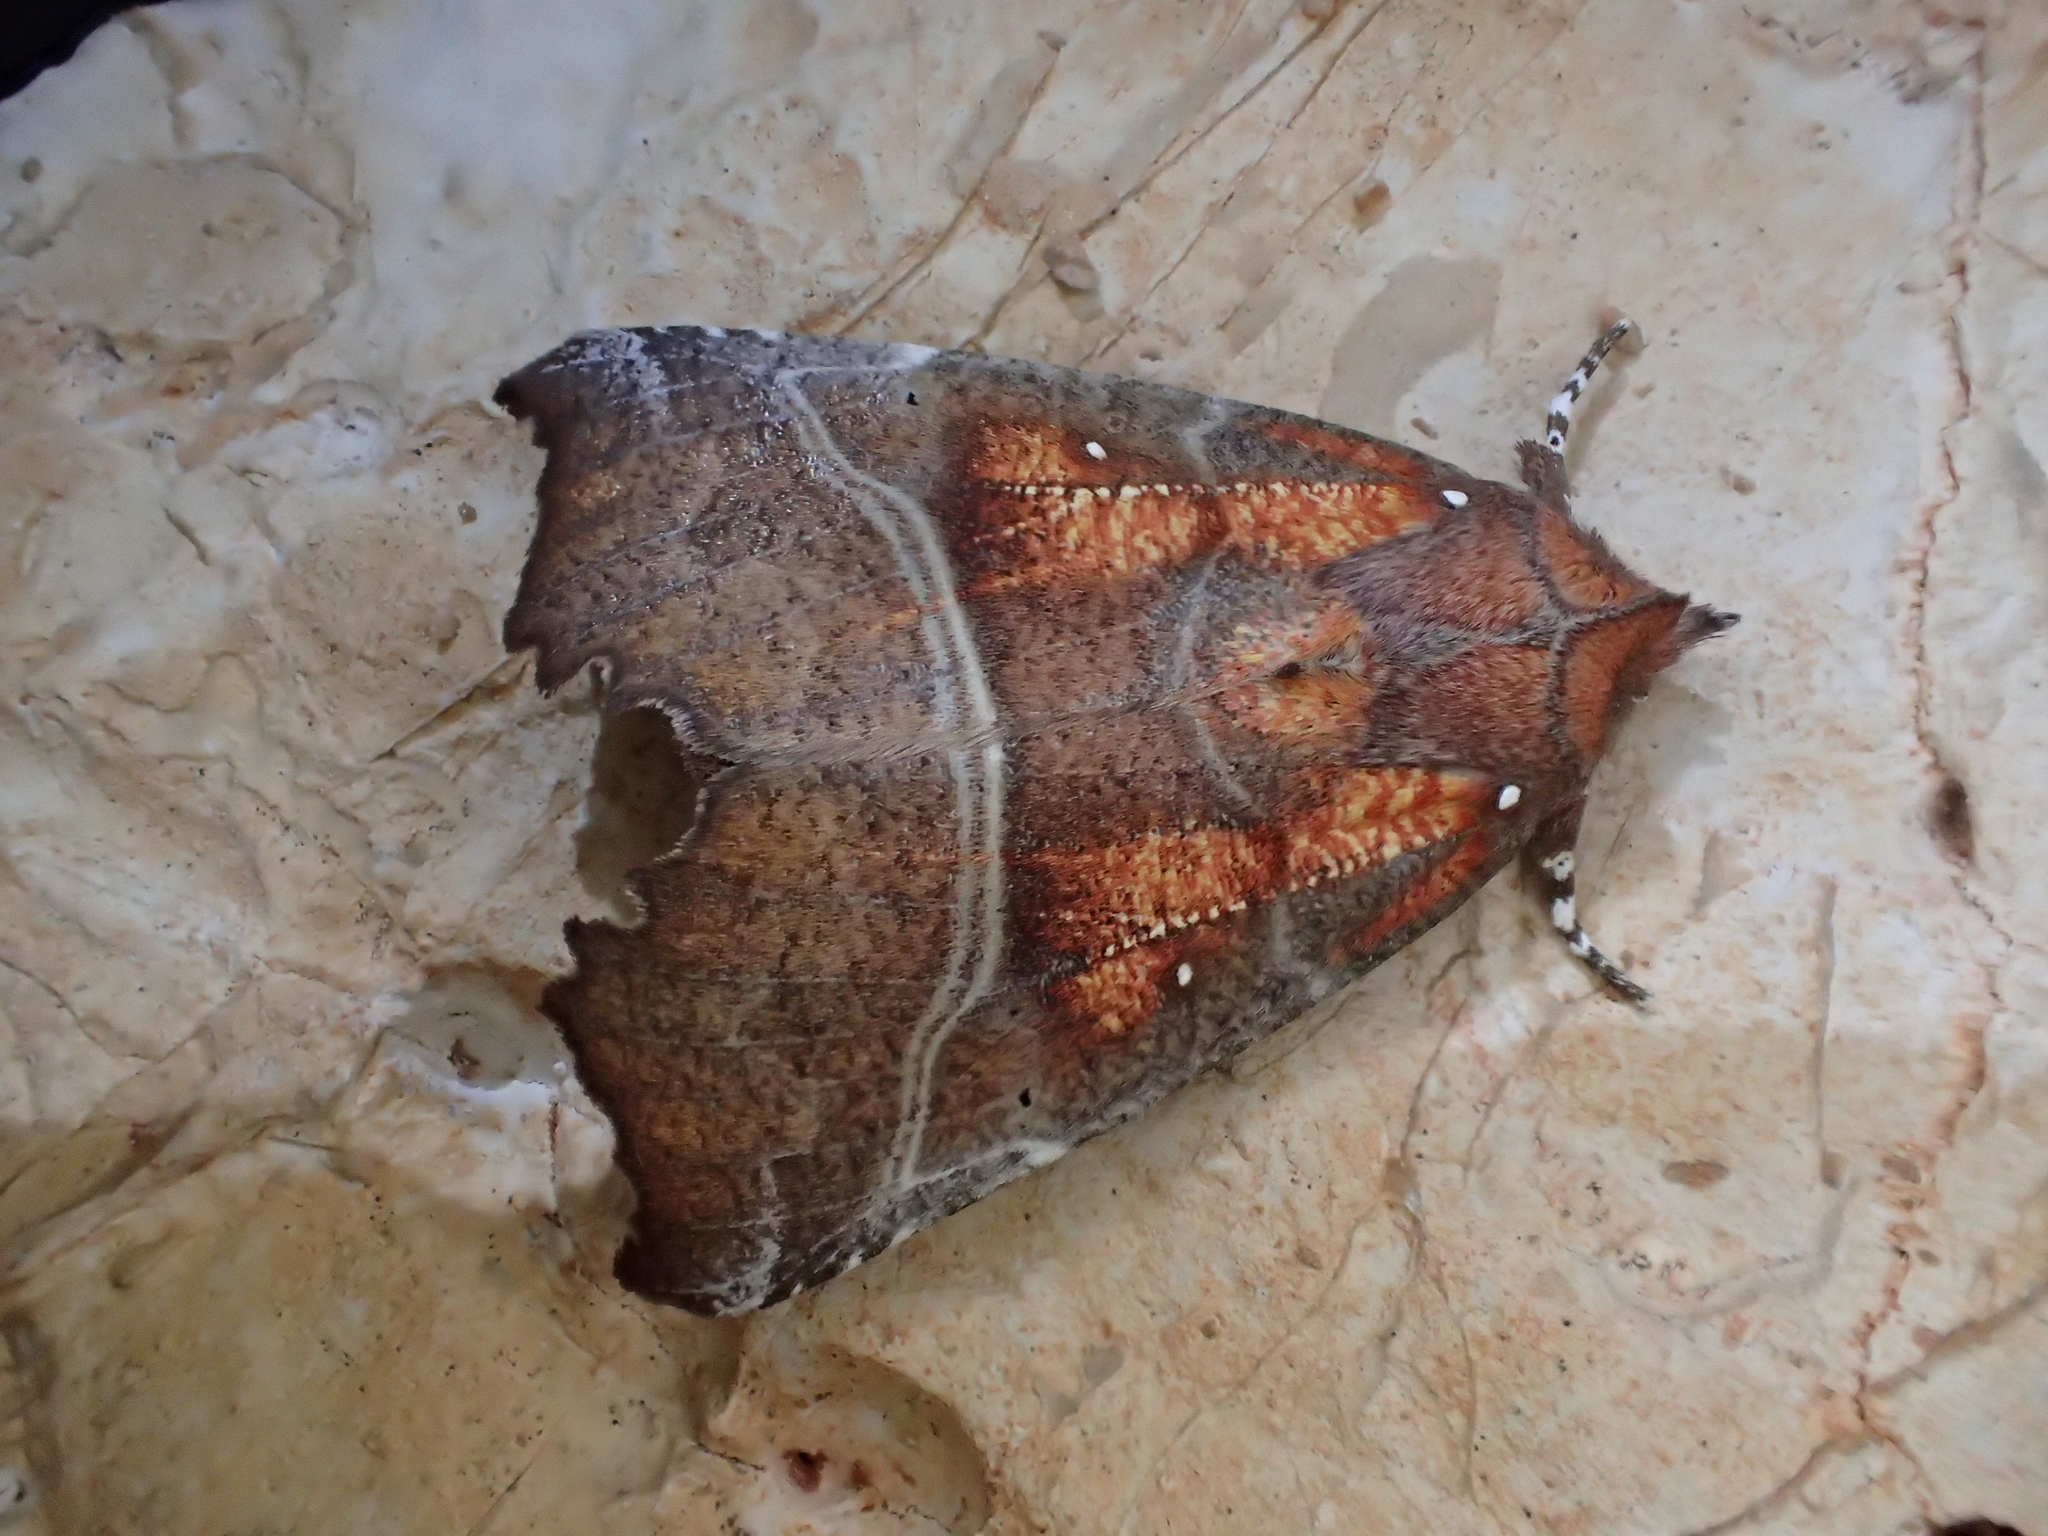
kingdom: Animalia
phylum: Arthropoda
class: Insecta
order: Lepidoptera
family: Erebidae
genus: Scoliopteryx
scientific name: Scoliopteryx libatrix
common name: Herald
